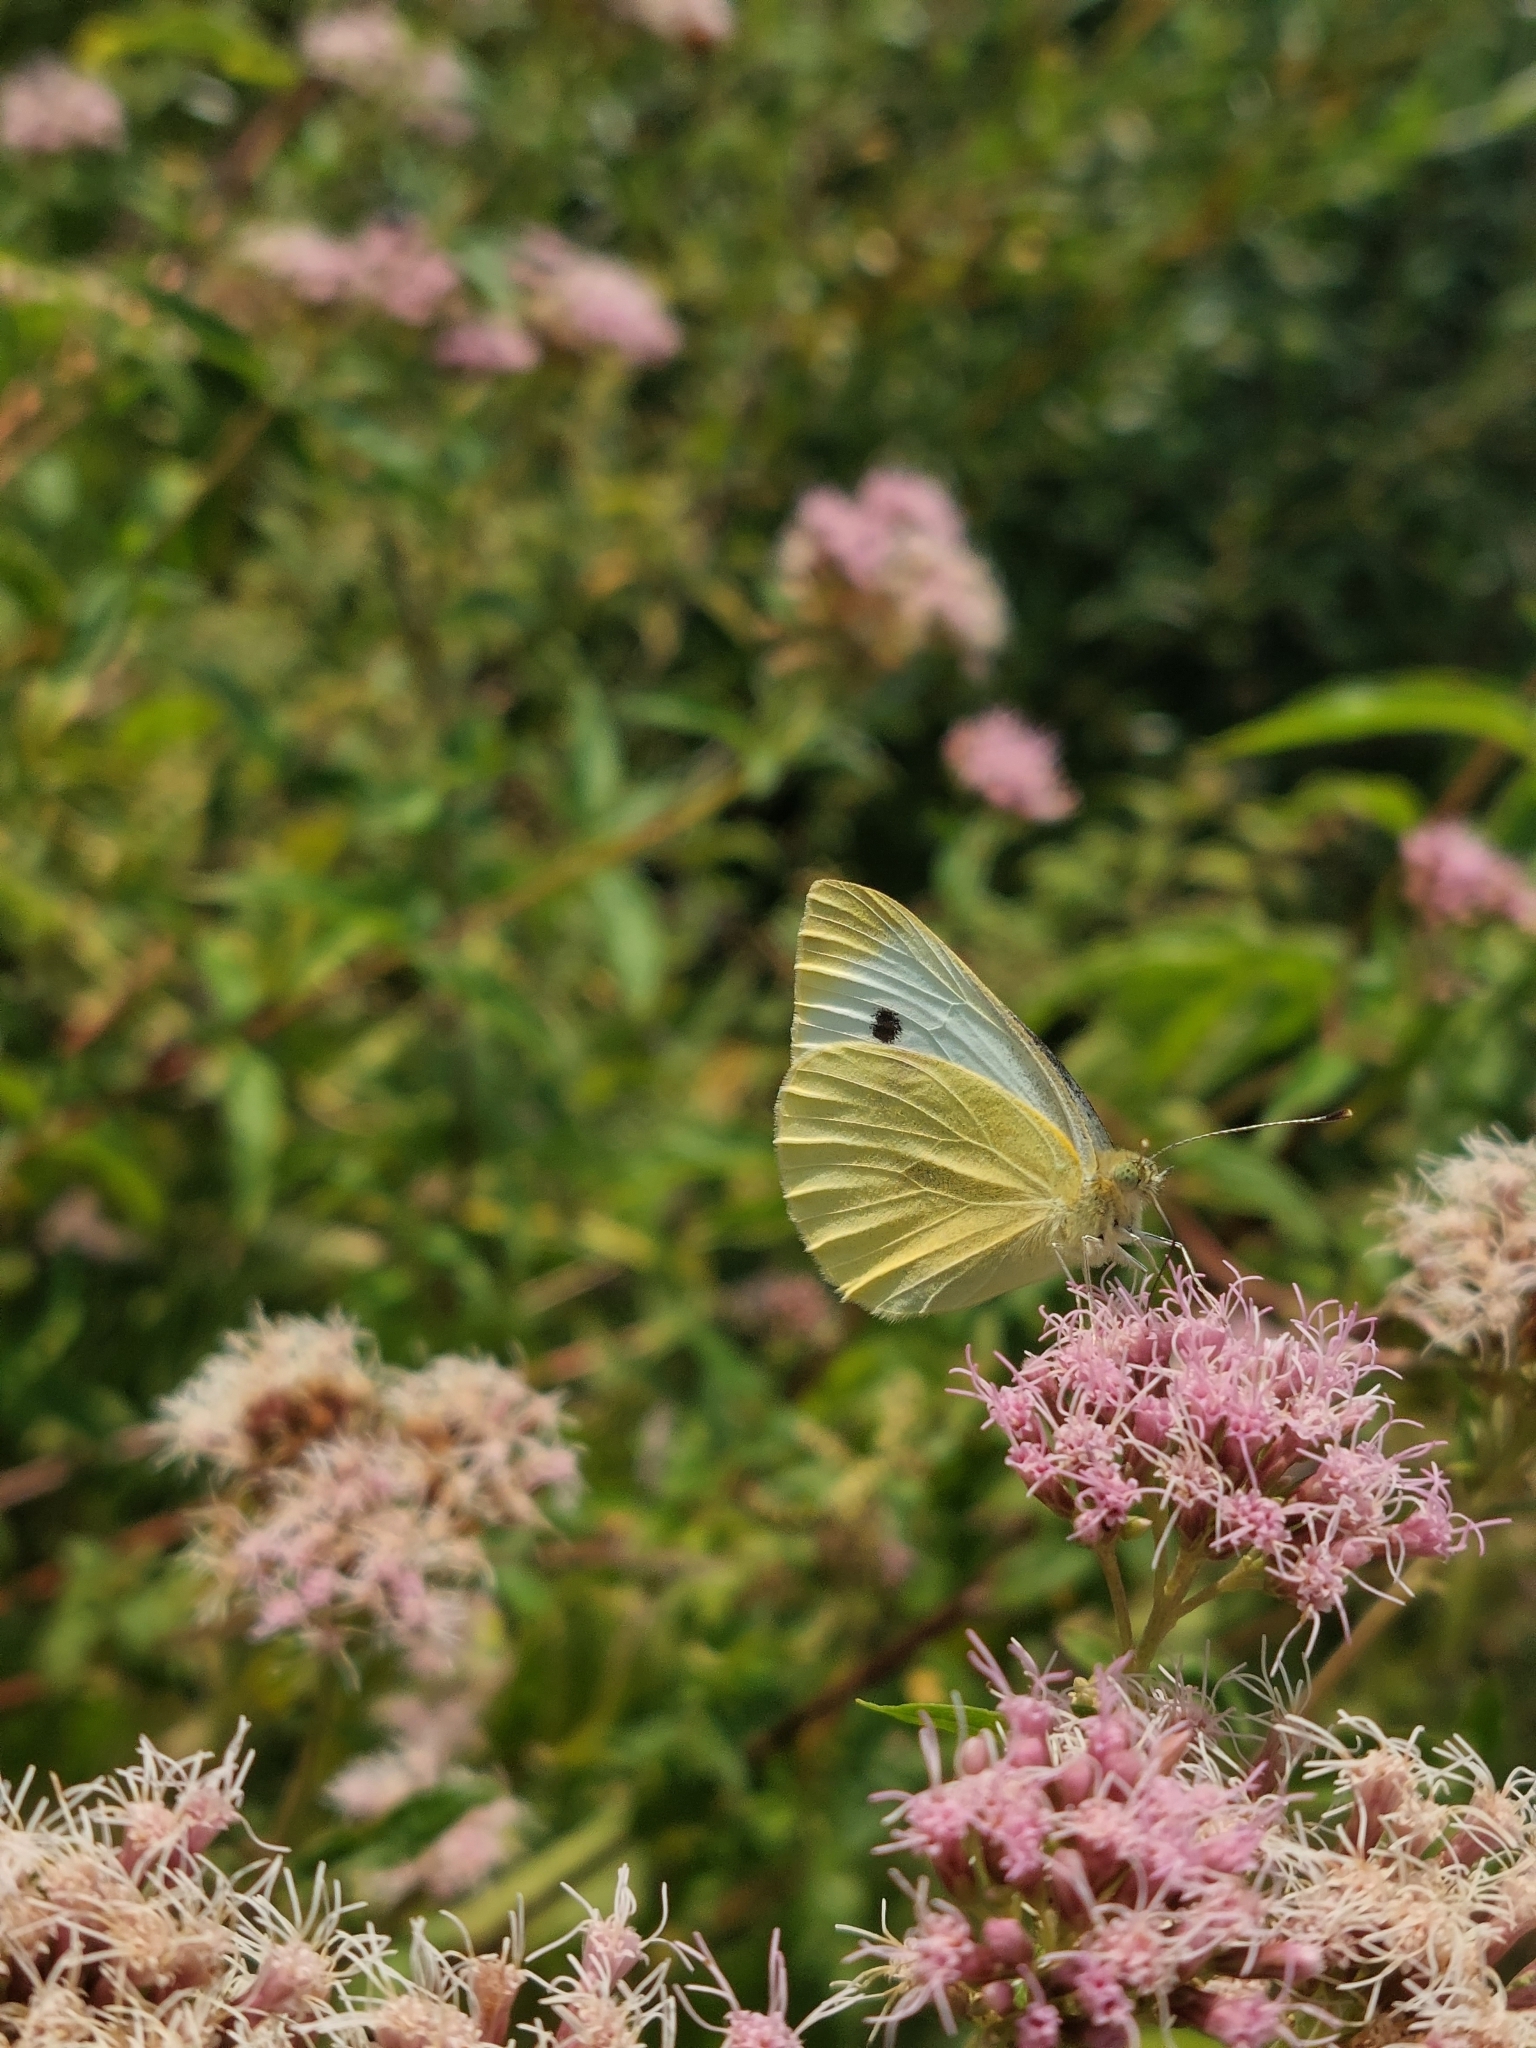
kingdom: Animalia
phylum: Arthropoda
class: Insecta
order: Lepidoptera
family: Pieridae
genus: Pieris
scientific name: Pieris rapae
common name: Small white
